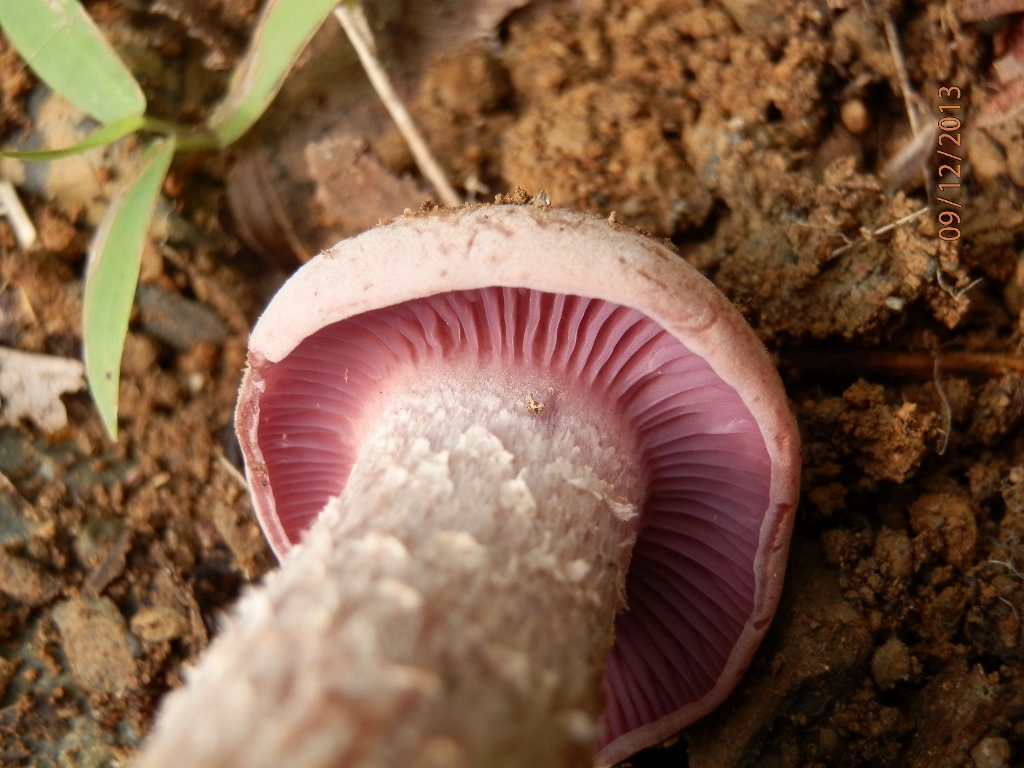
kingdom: Fungi
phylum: Basidiomycota
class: Agaricomycetes
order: Agaricales
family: Hydnangiaceae
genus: Laccaria
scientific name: Laccaria ochropurpurea
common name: Purple laccaria
